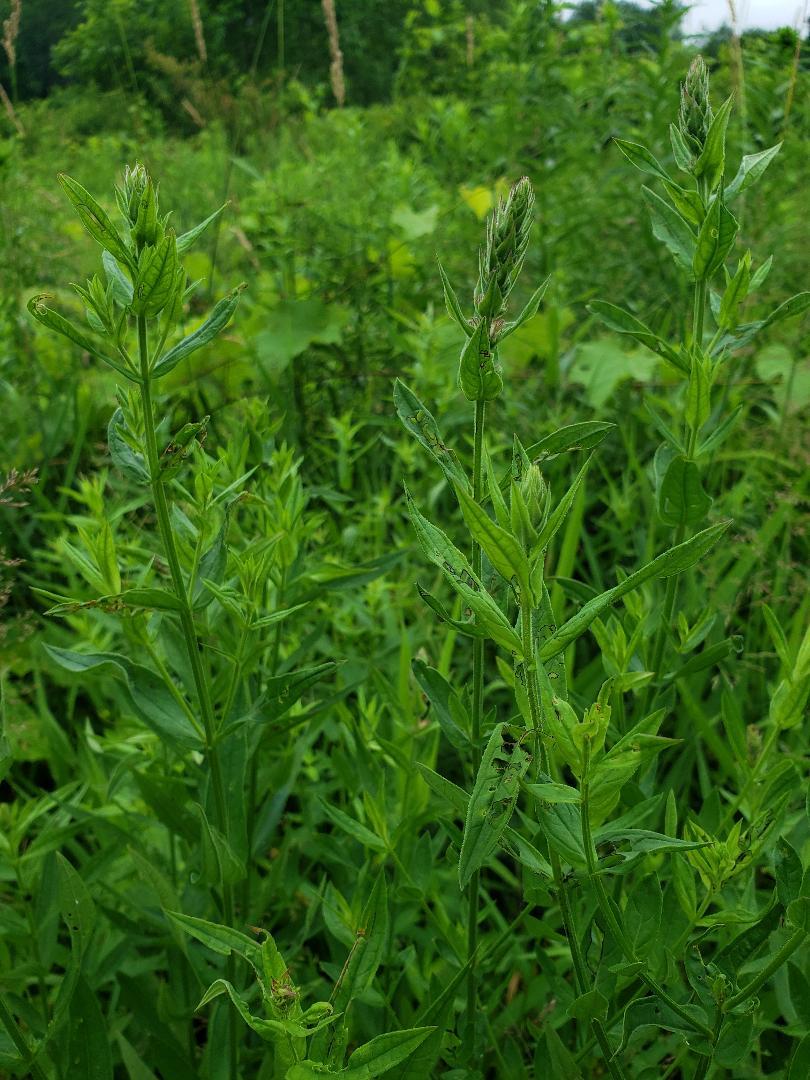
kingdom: Plantae
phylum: Tracheophyta
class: Magnoliopsida
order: Myrtales
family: Lythraceae
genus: Lythrum
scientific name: Lythrum salicaria
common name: Purple loosestrife
